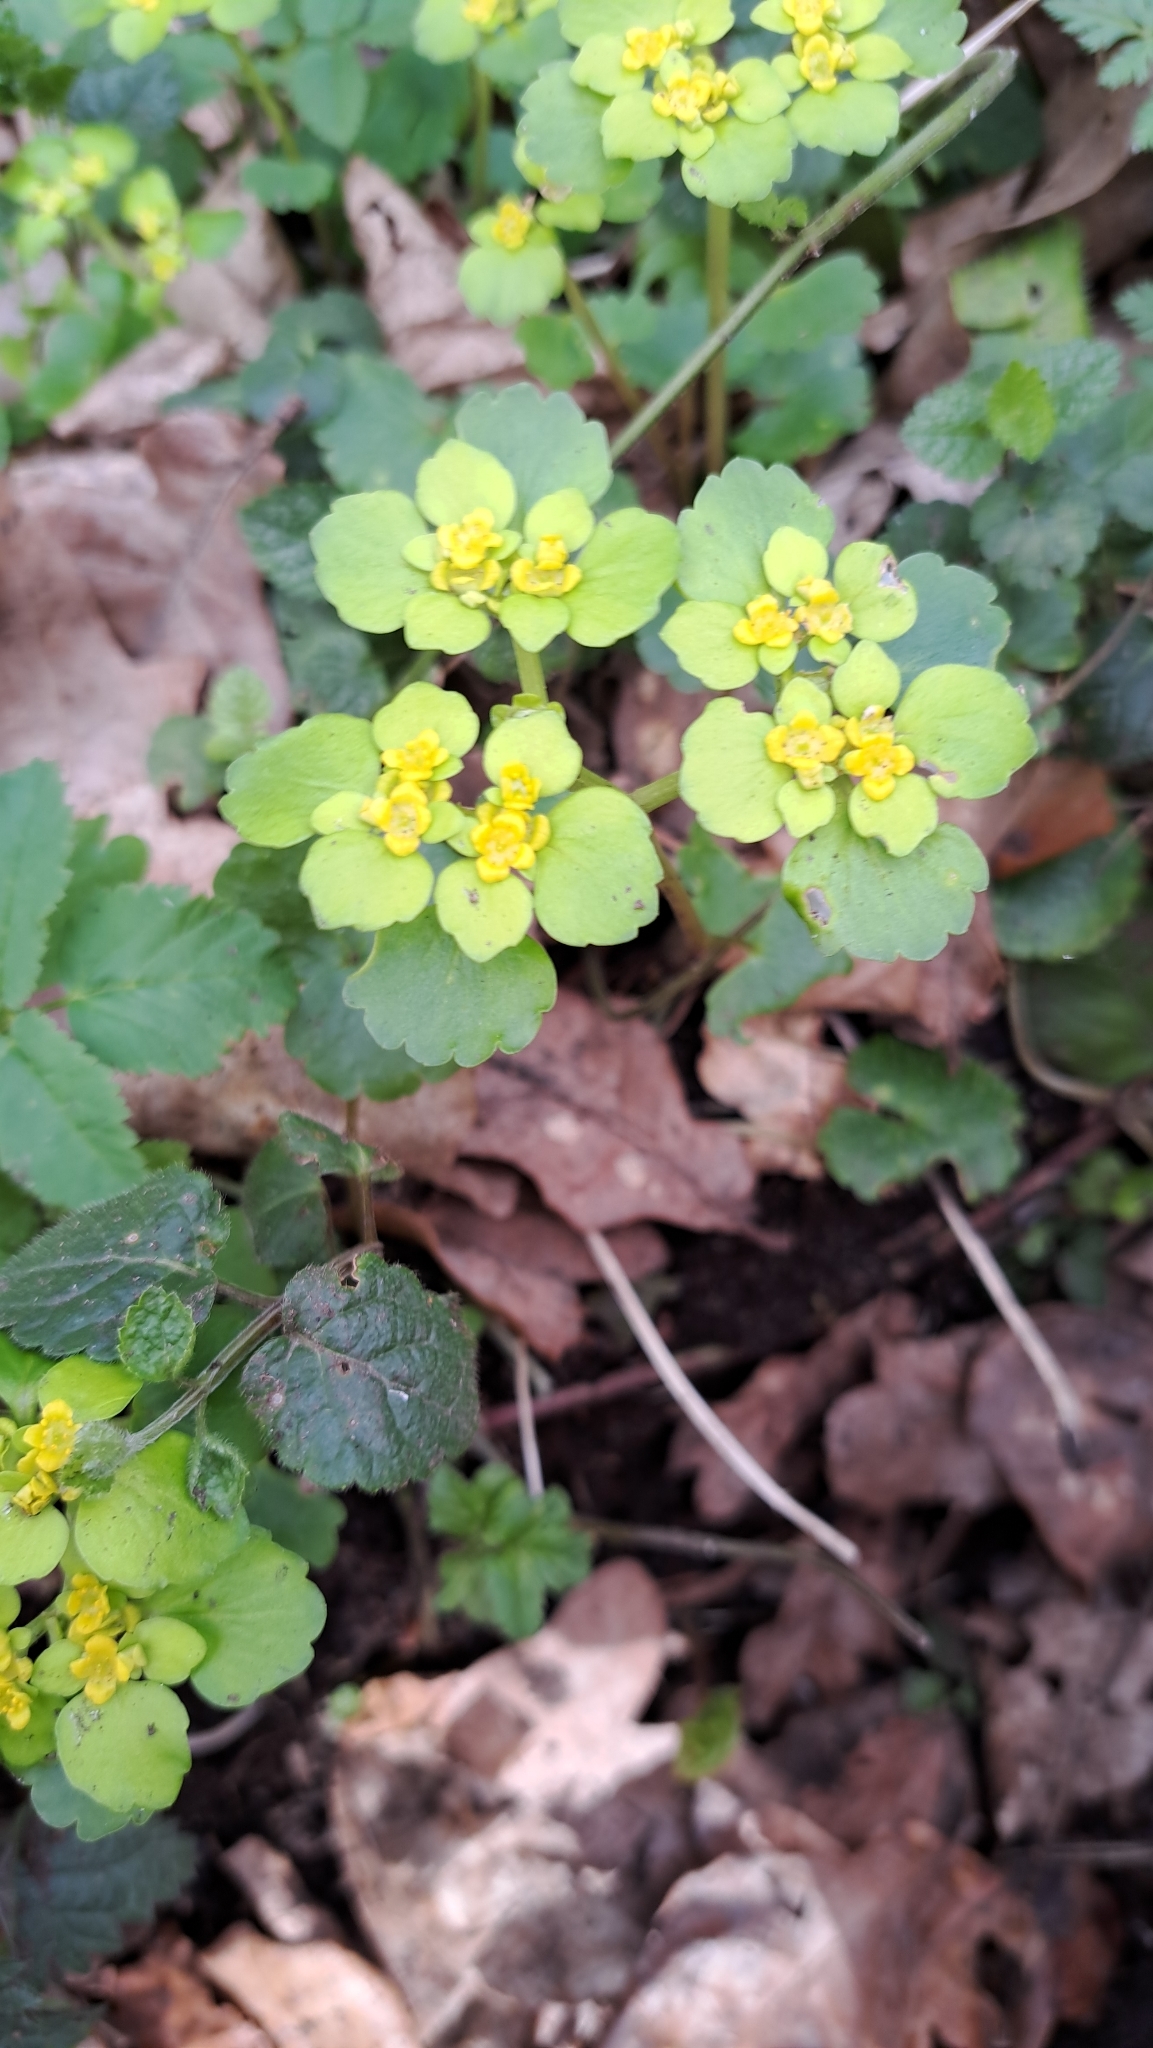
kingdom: Plantae
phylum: Tracheophyta
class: Magnoliopsida
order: Saxifragales
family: Saxifragaceae
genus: Chrysosplenium
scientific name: Chrysosplenium alternifolium
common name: Alternate-leaved golden-saxifrage
